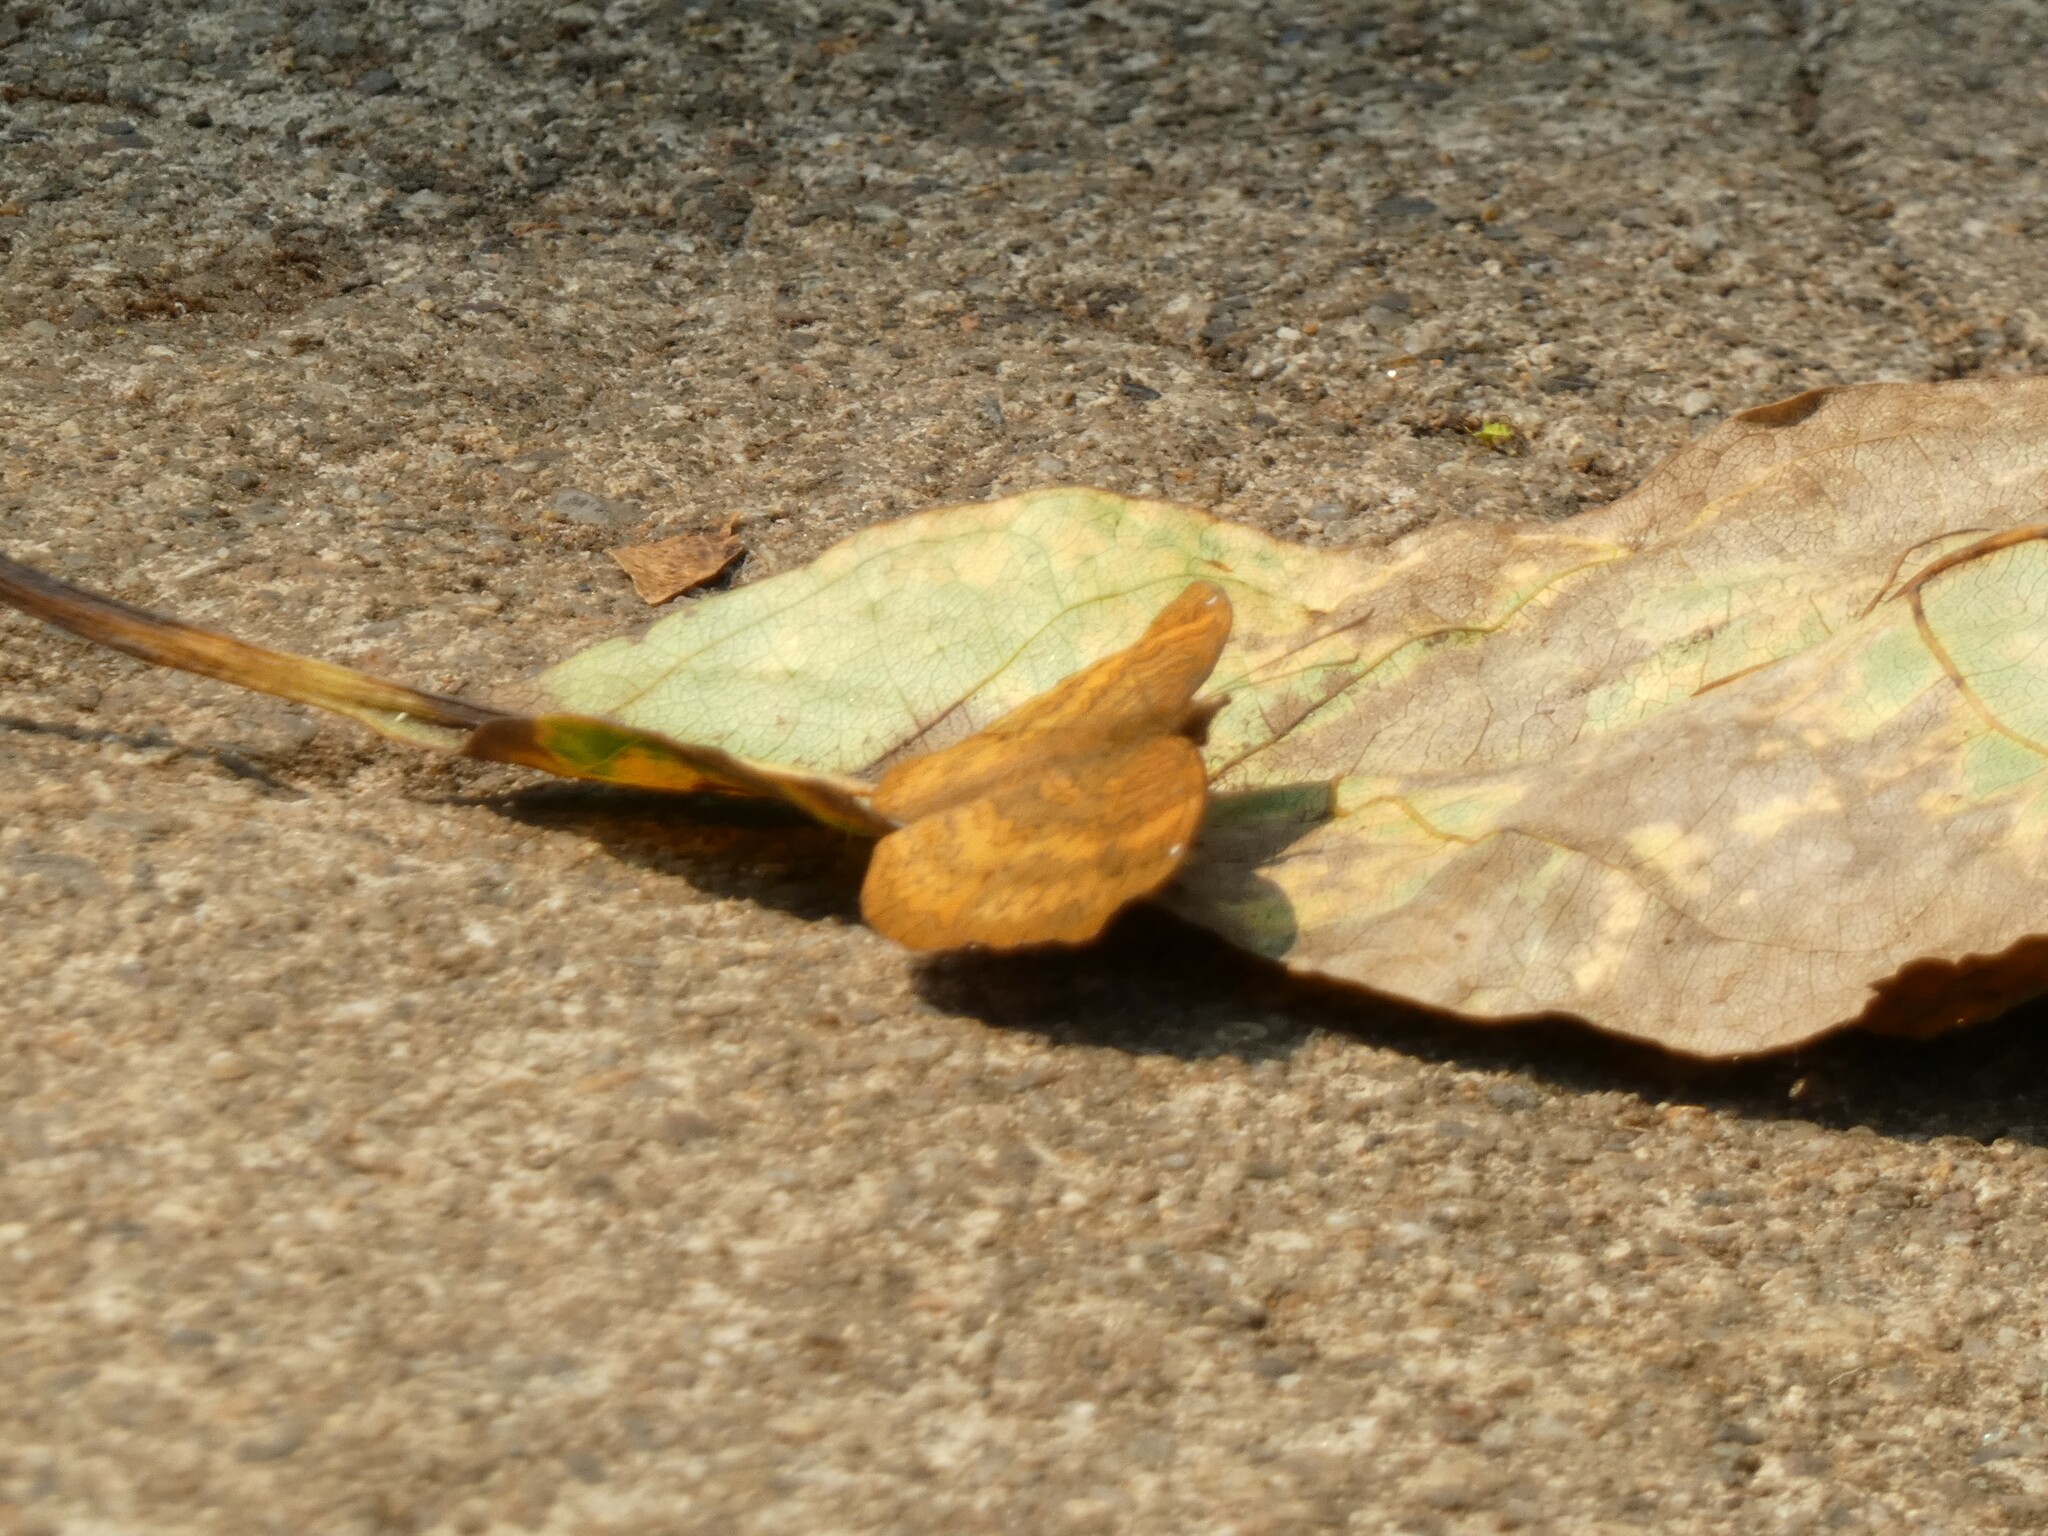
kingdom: Animalia
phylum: Arthropoda
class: Insecta
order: Lepidoptera
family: Nymphalidae
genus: Ariadne
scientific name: Ariadne merione
